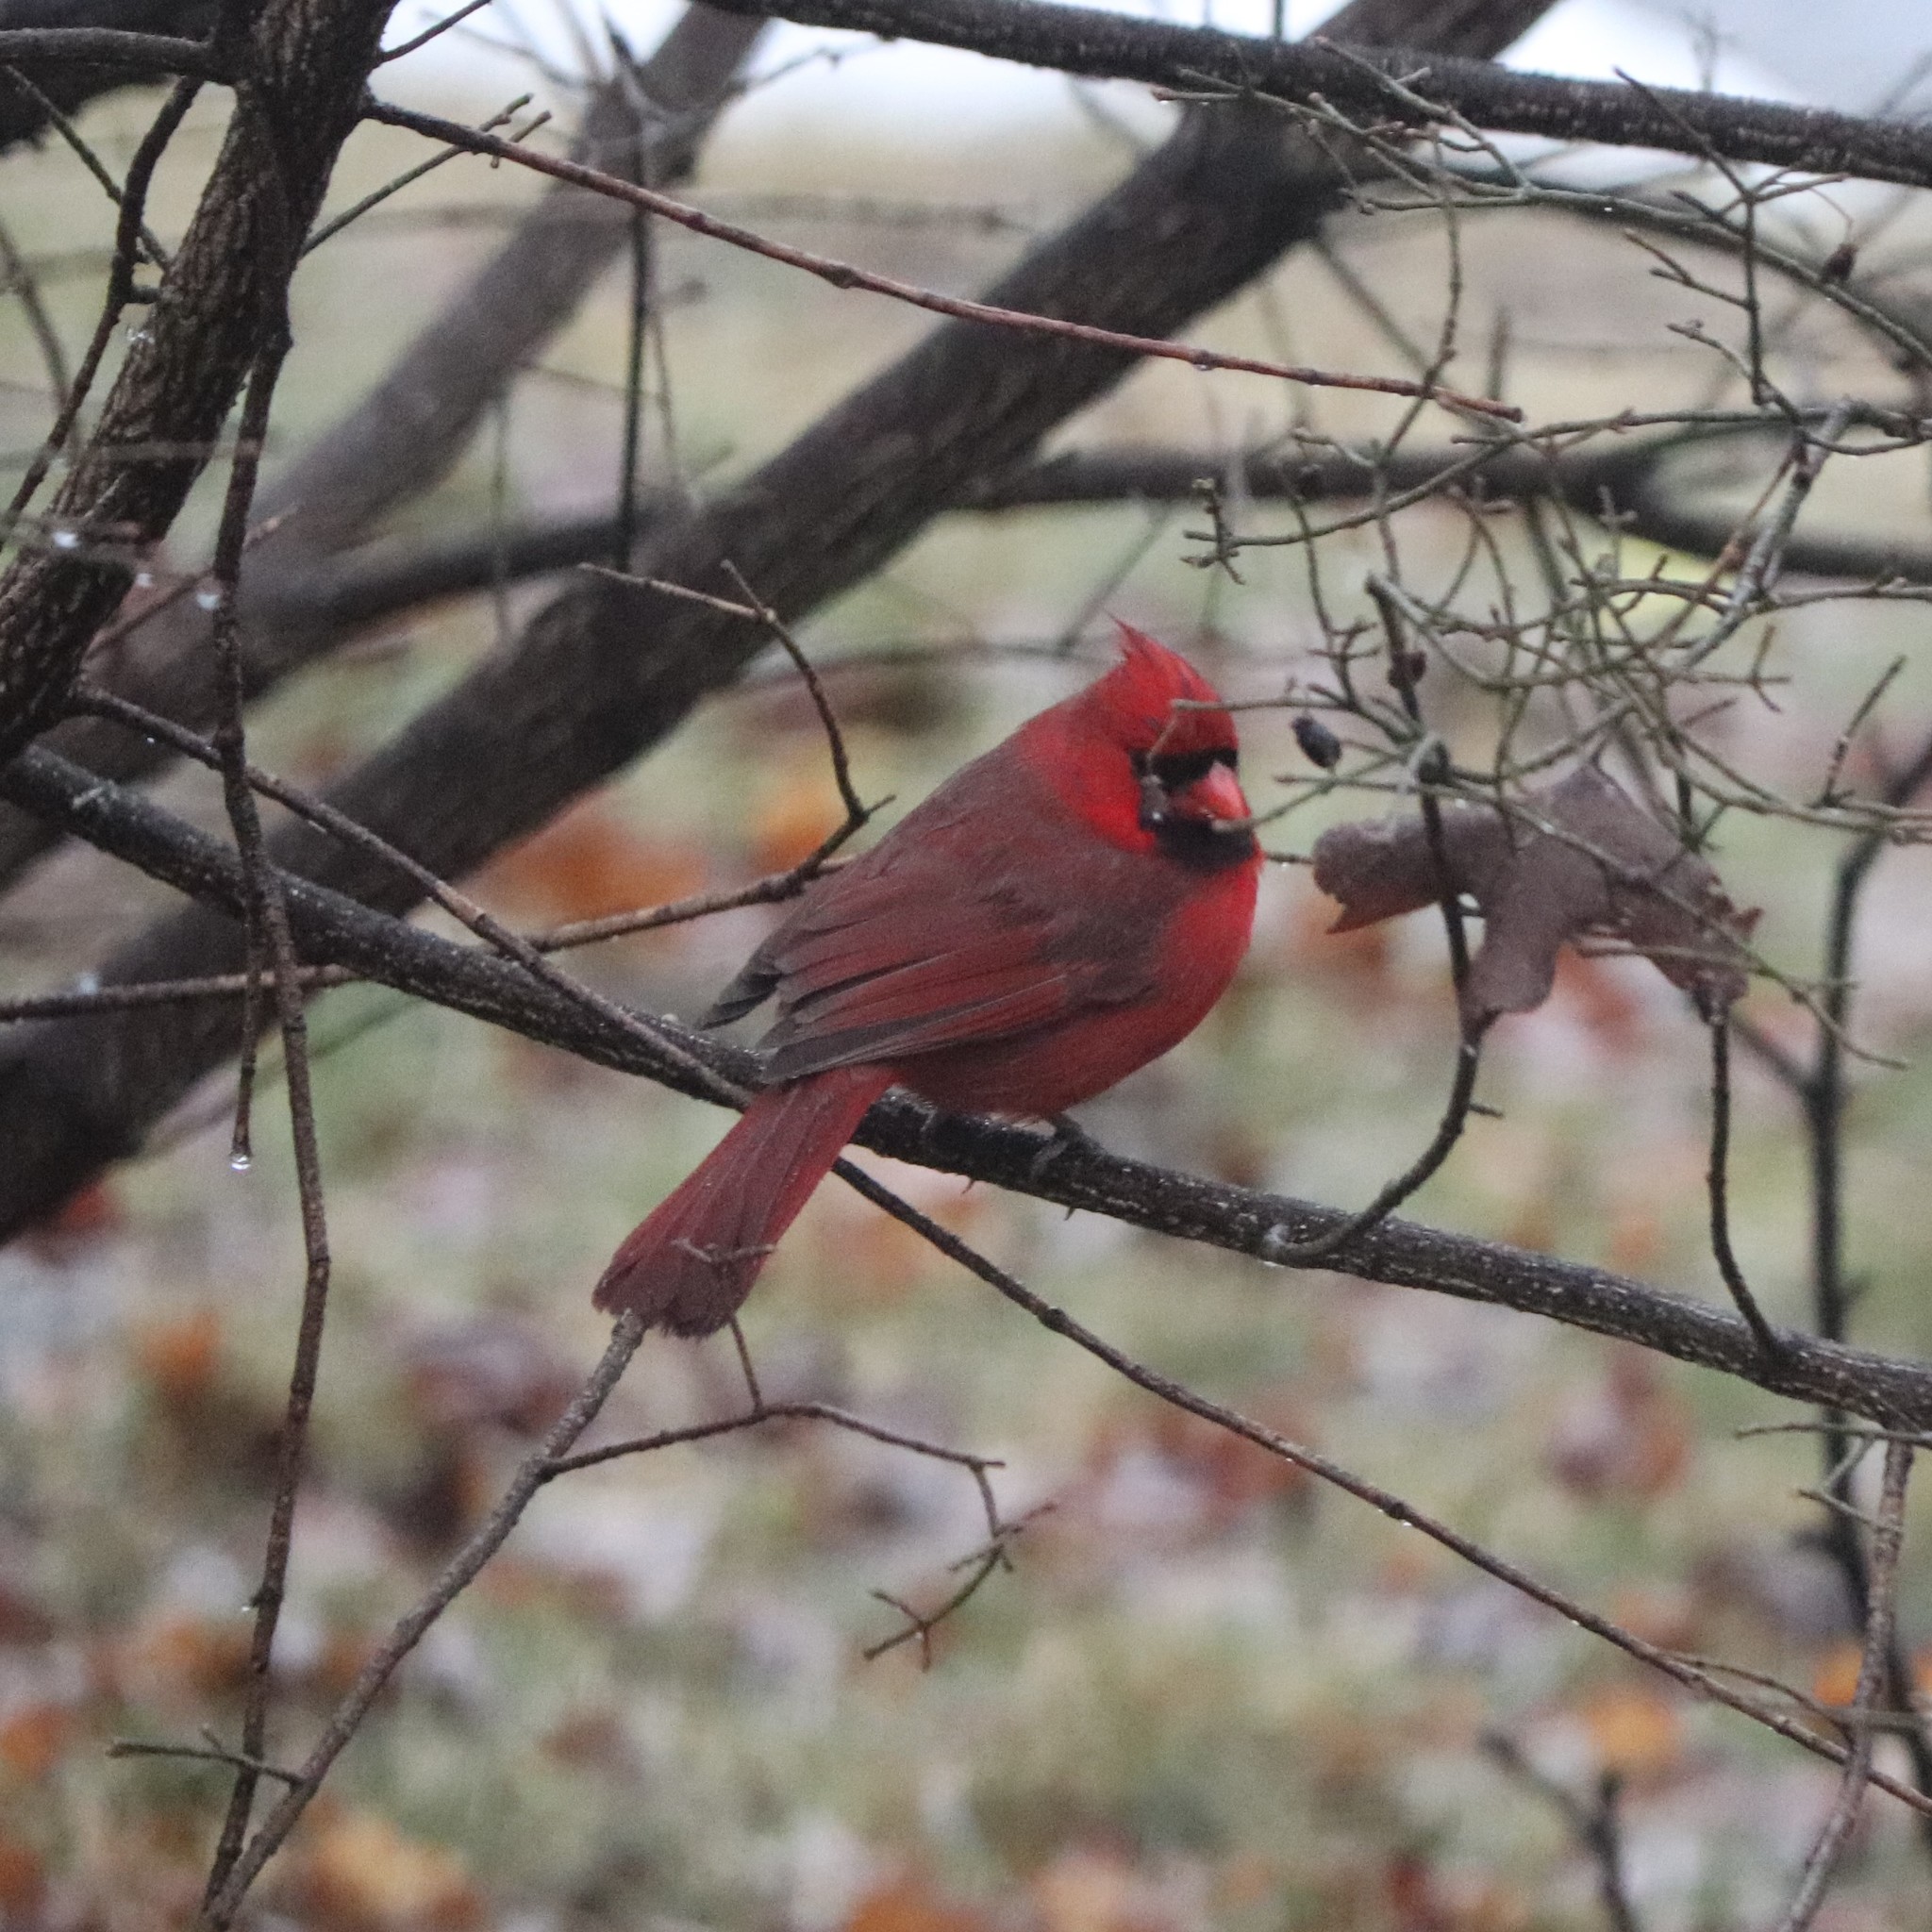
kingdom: Animalia
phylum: Chordata
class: Aves
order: Passeriformes
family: Cardinalidae
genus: Cardinalis
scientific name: Cardinalis cardinalis
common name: Northern cardinal
